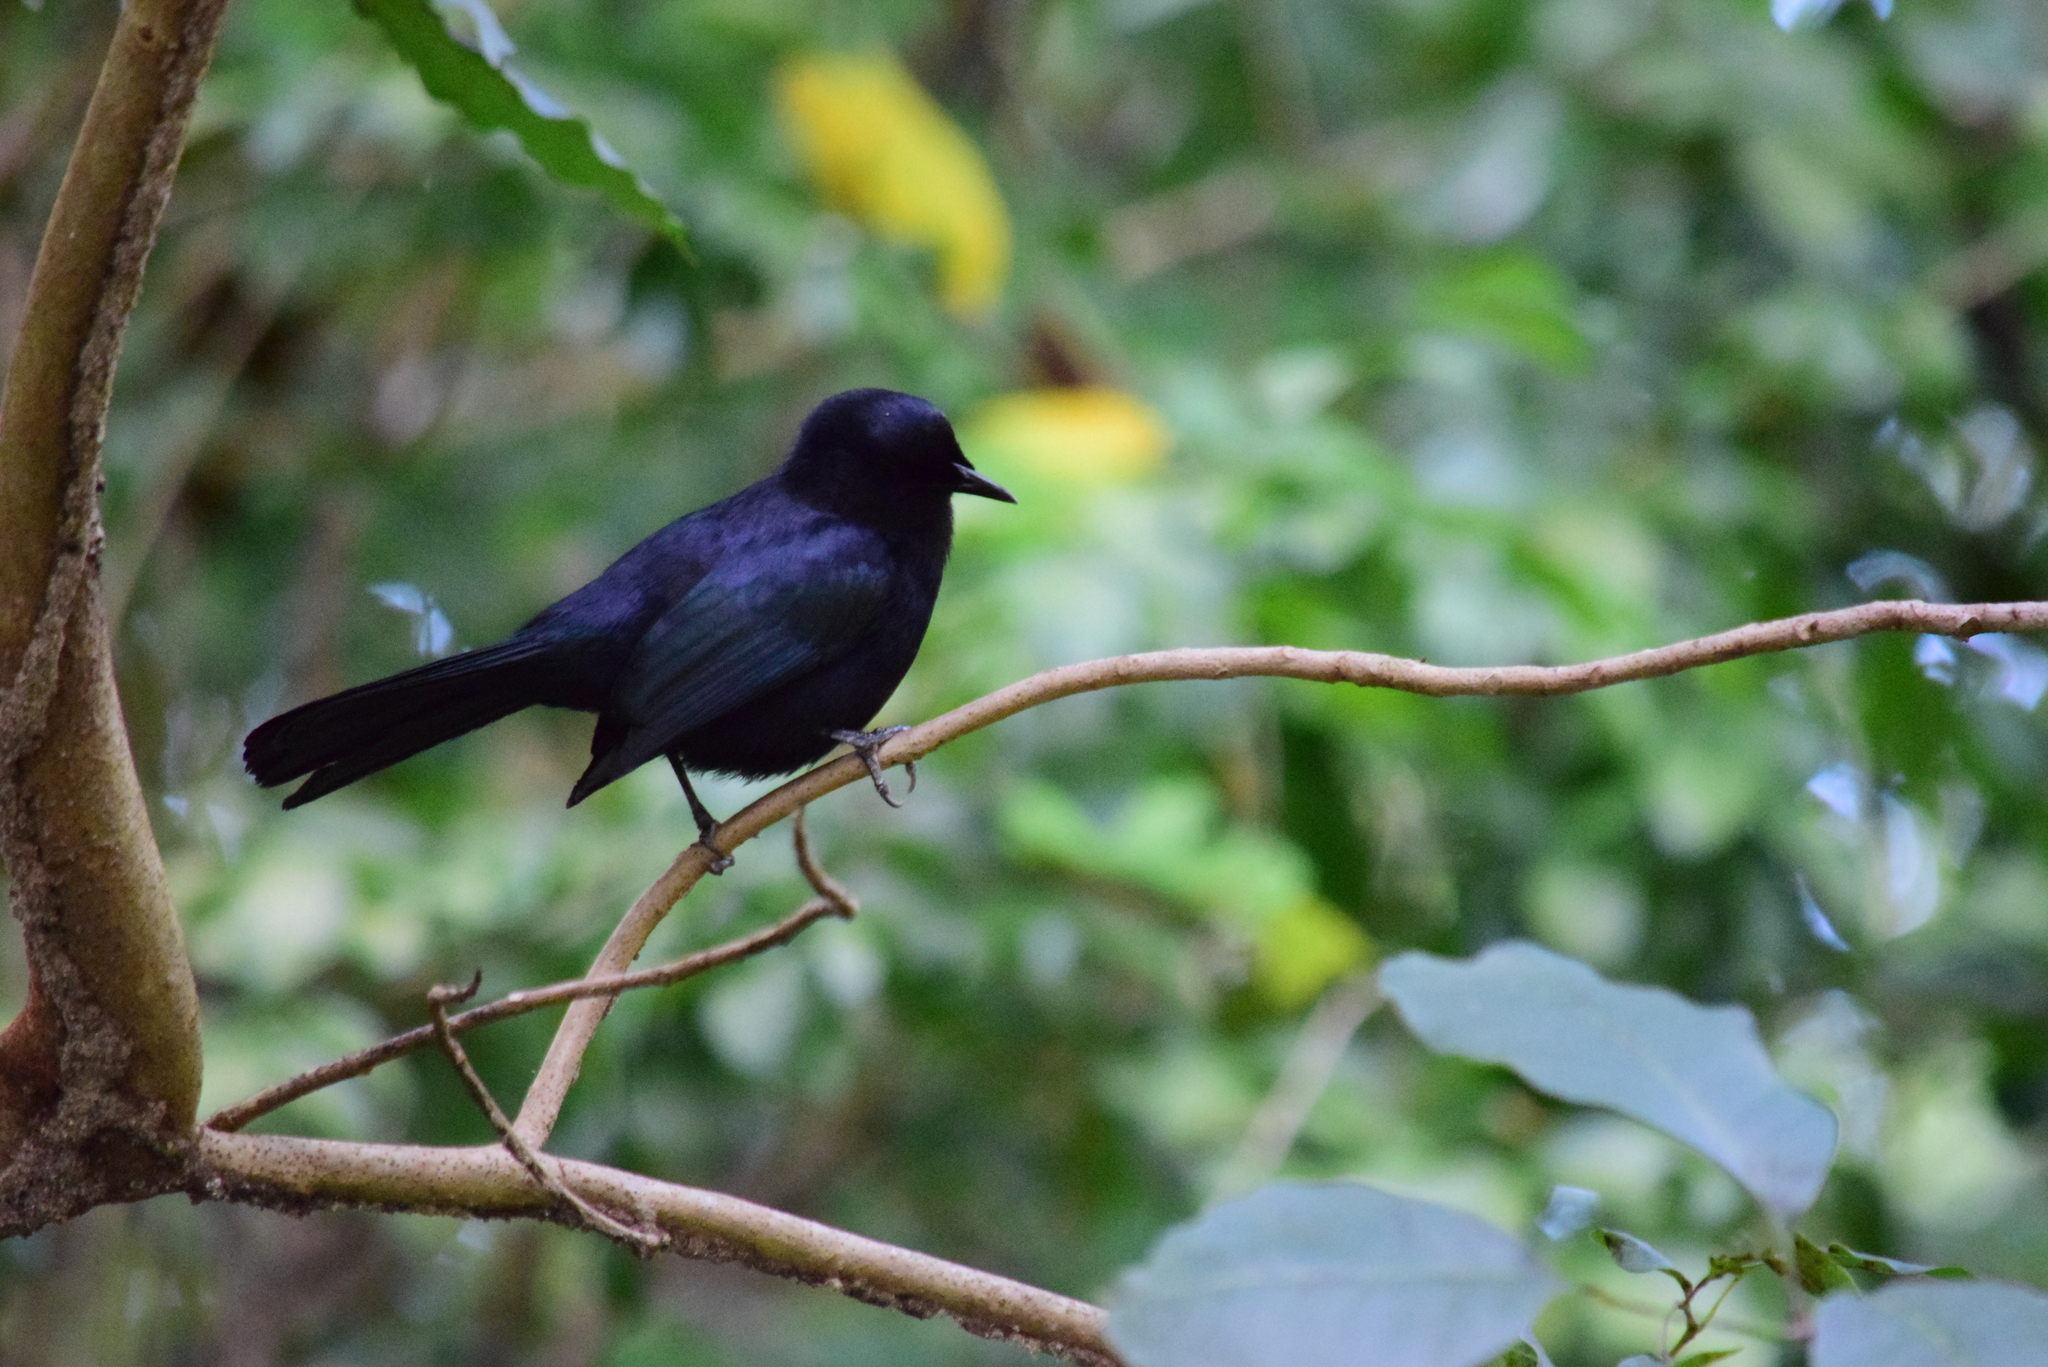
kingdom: Animalia
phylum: Chordata
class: Aves
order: Passeriformes
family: Mimidae
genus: Melanoptila
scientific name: Melanoptila glabrirostris
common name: Black catbird
